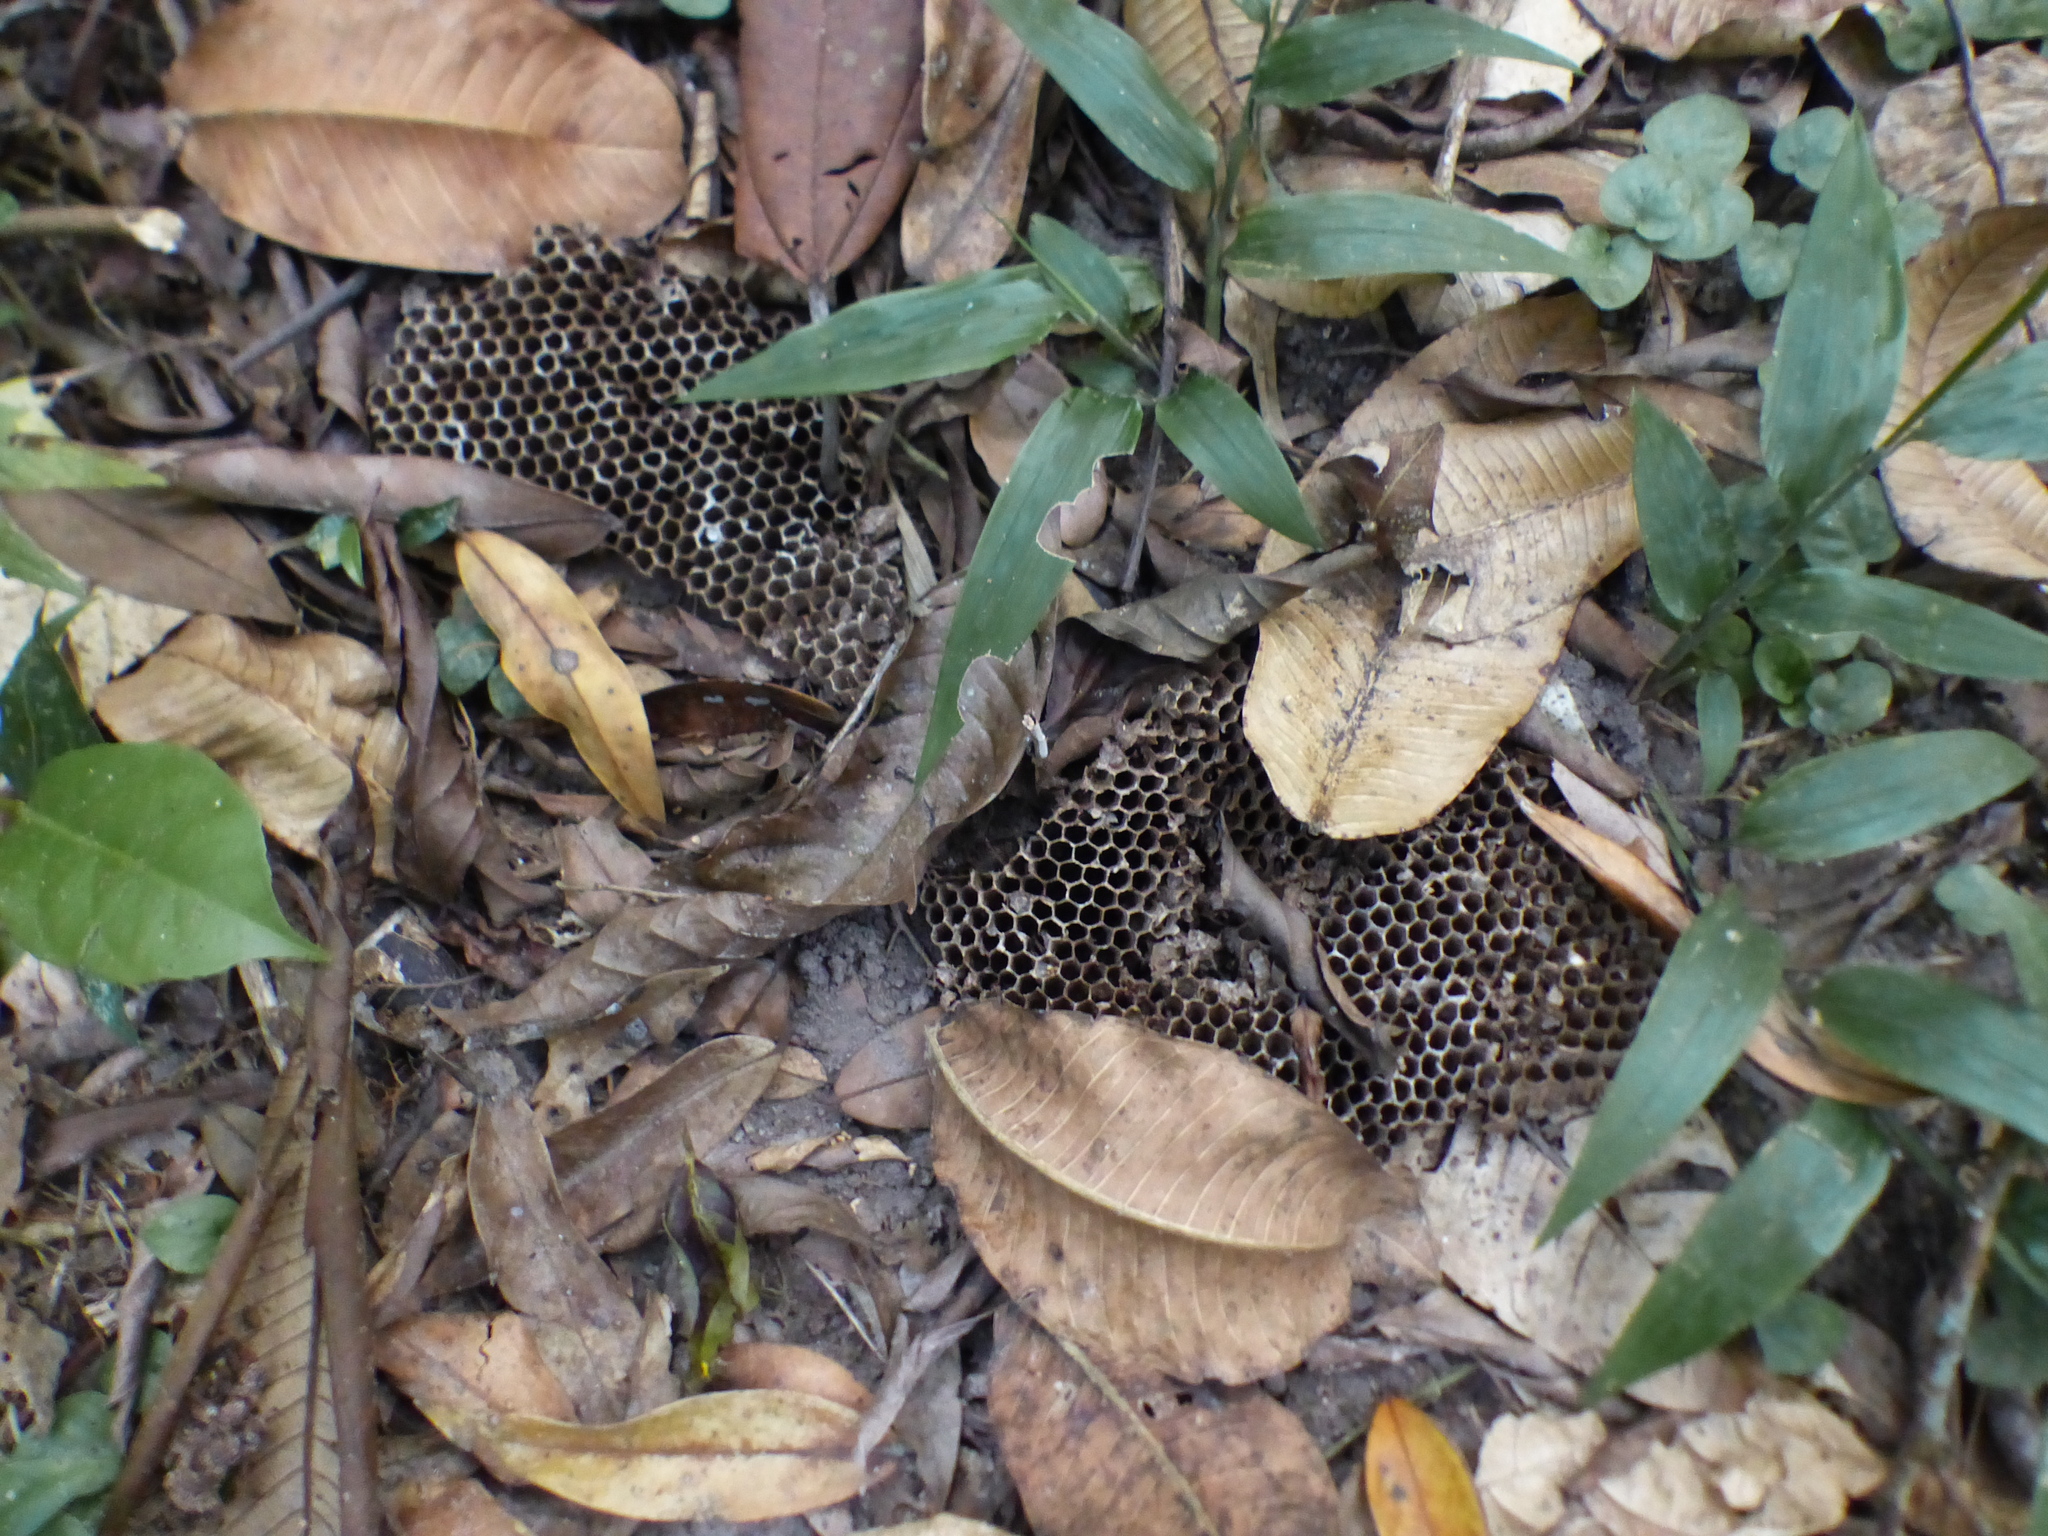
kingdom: Animalia
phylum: Arthropoda
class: Insecta
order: Hymenoptera
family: Apidae
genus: Apis
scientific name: Apis mellifera
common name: Honey bee
